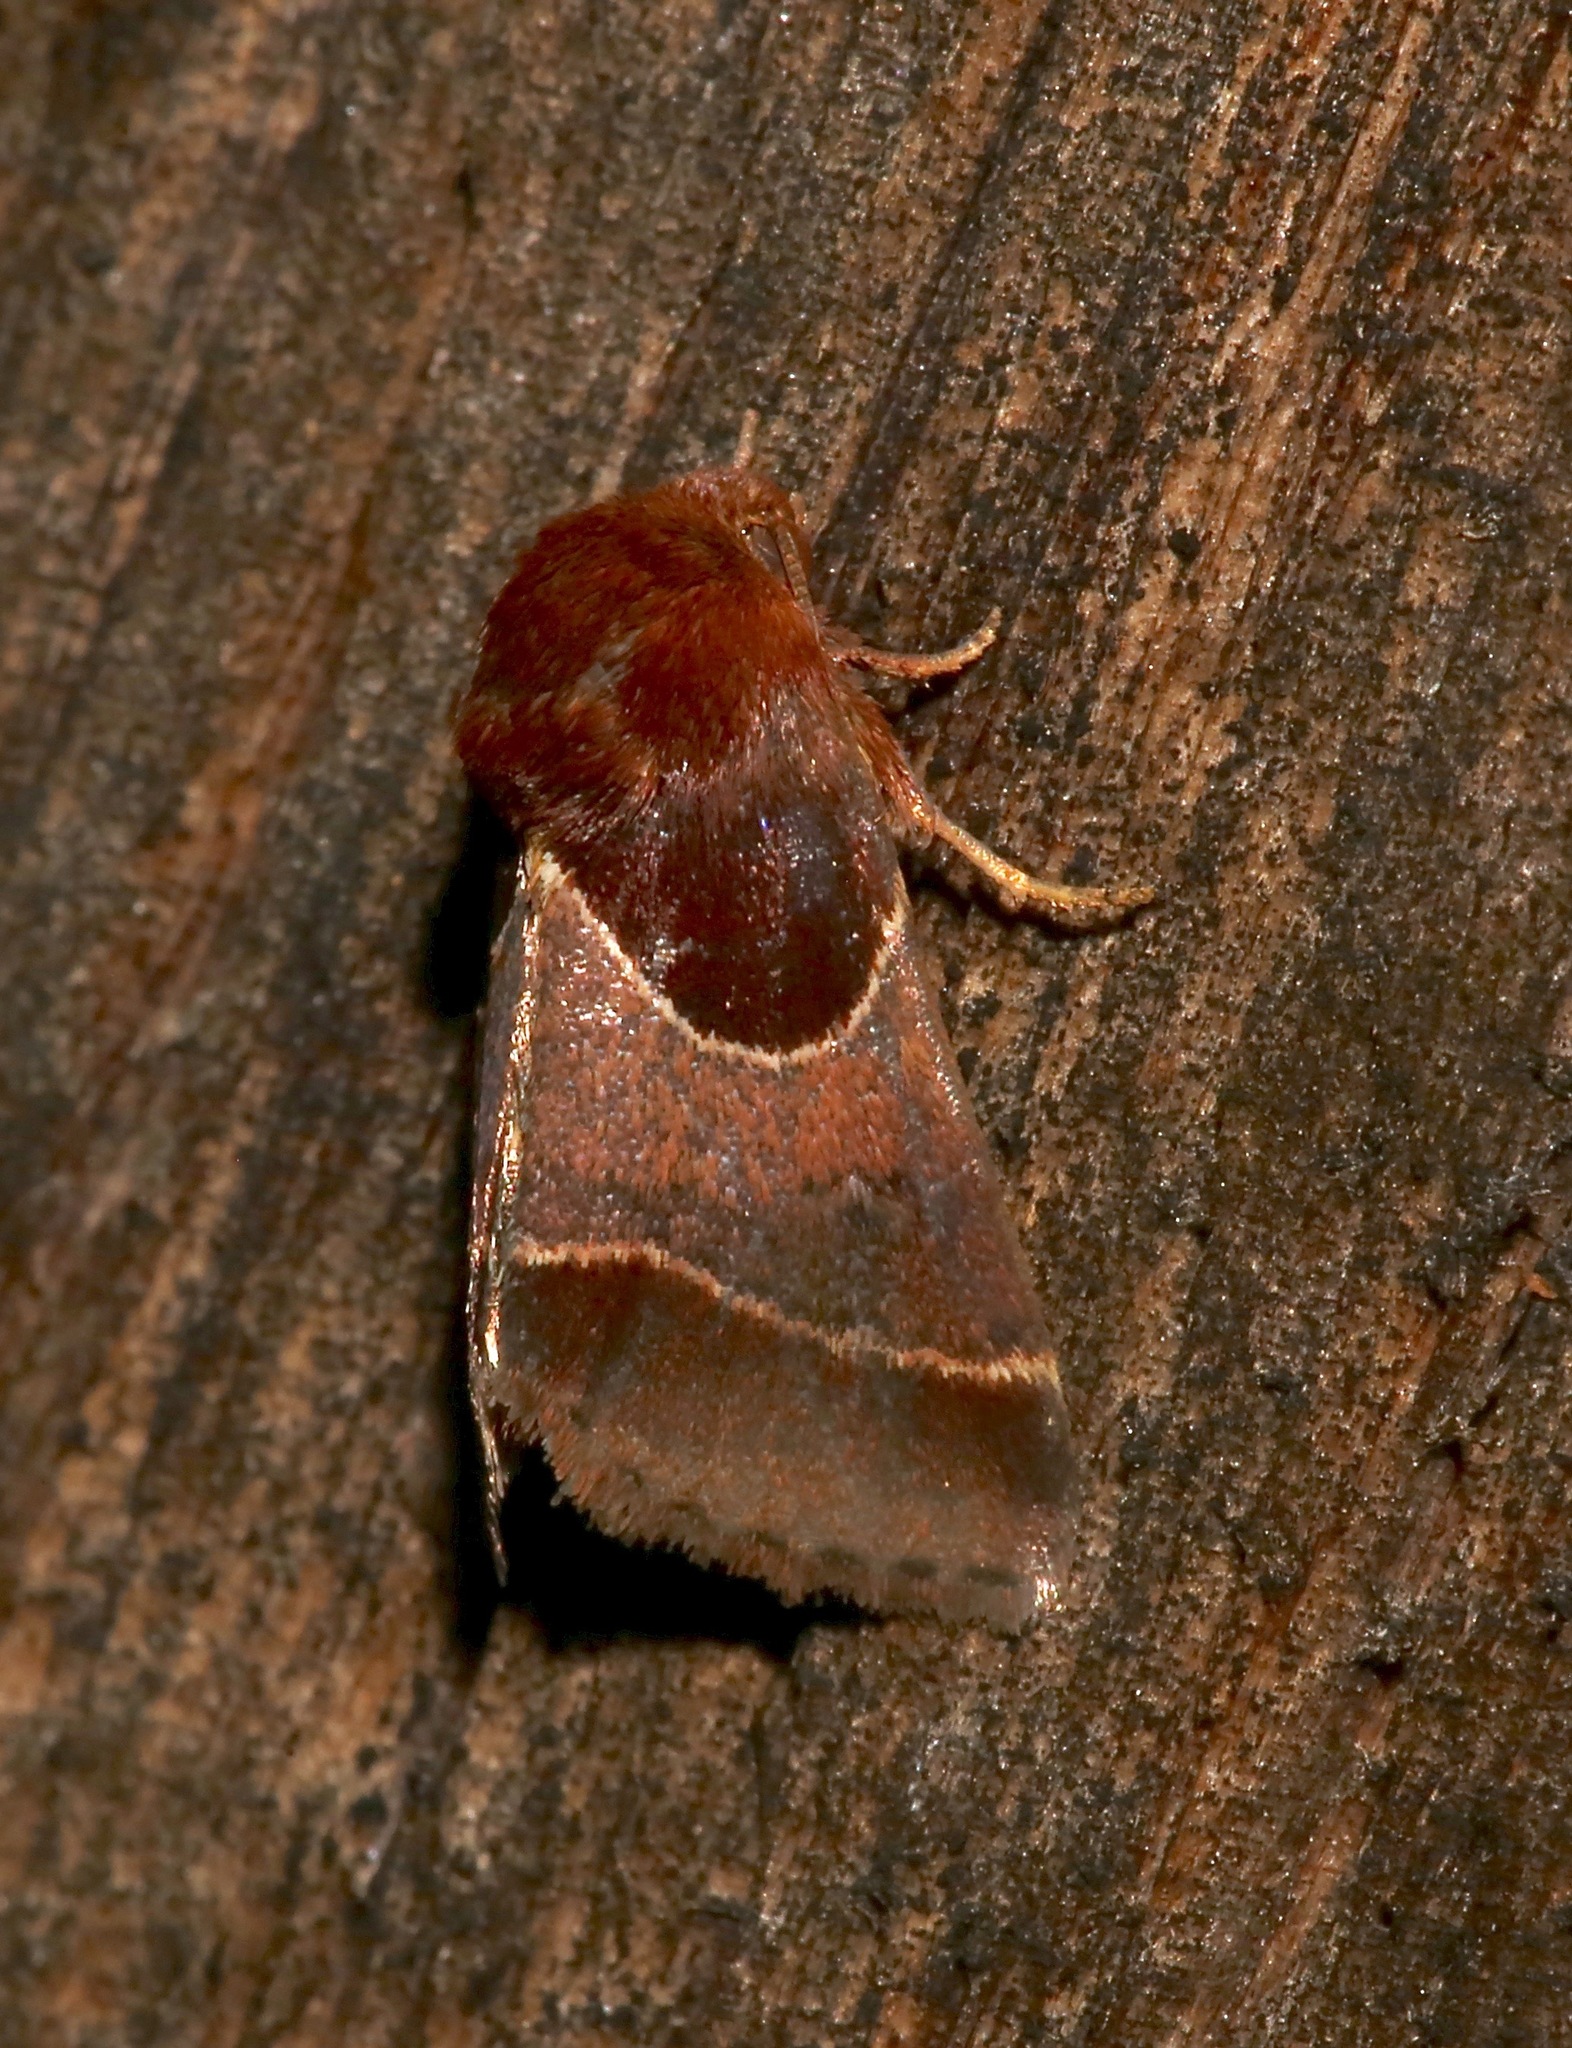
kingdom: Animalia
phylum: Arthropoda
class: Insecta
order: Lepidoptera
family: Noctuidae
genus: Schinia
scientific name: Schinia arcigera
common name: Arcigera flower moth
